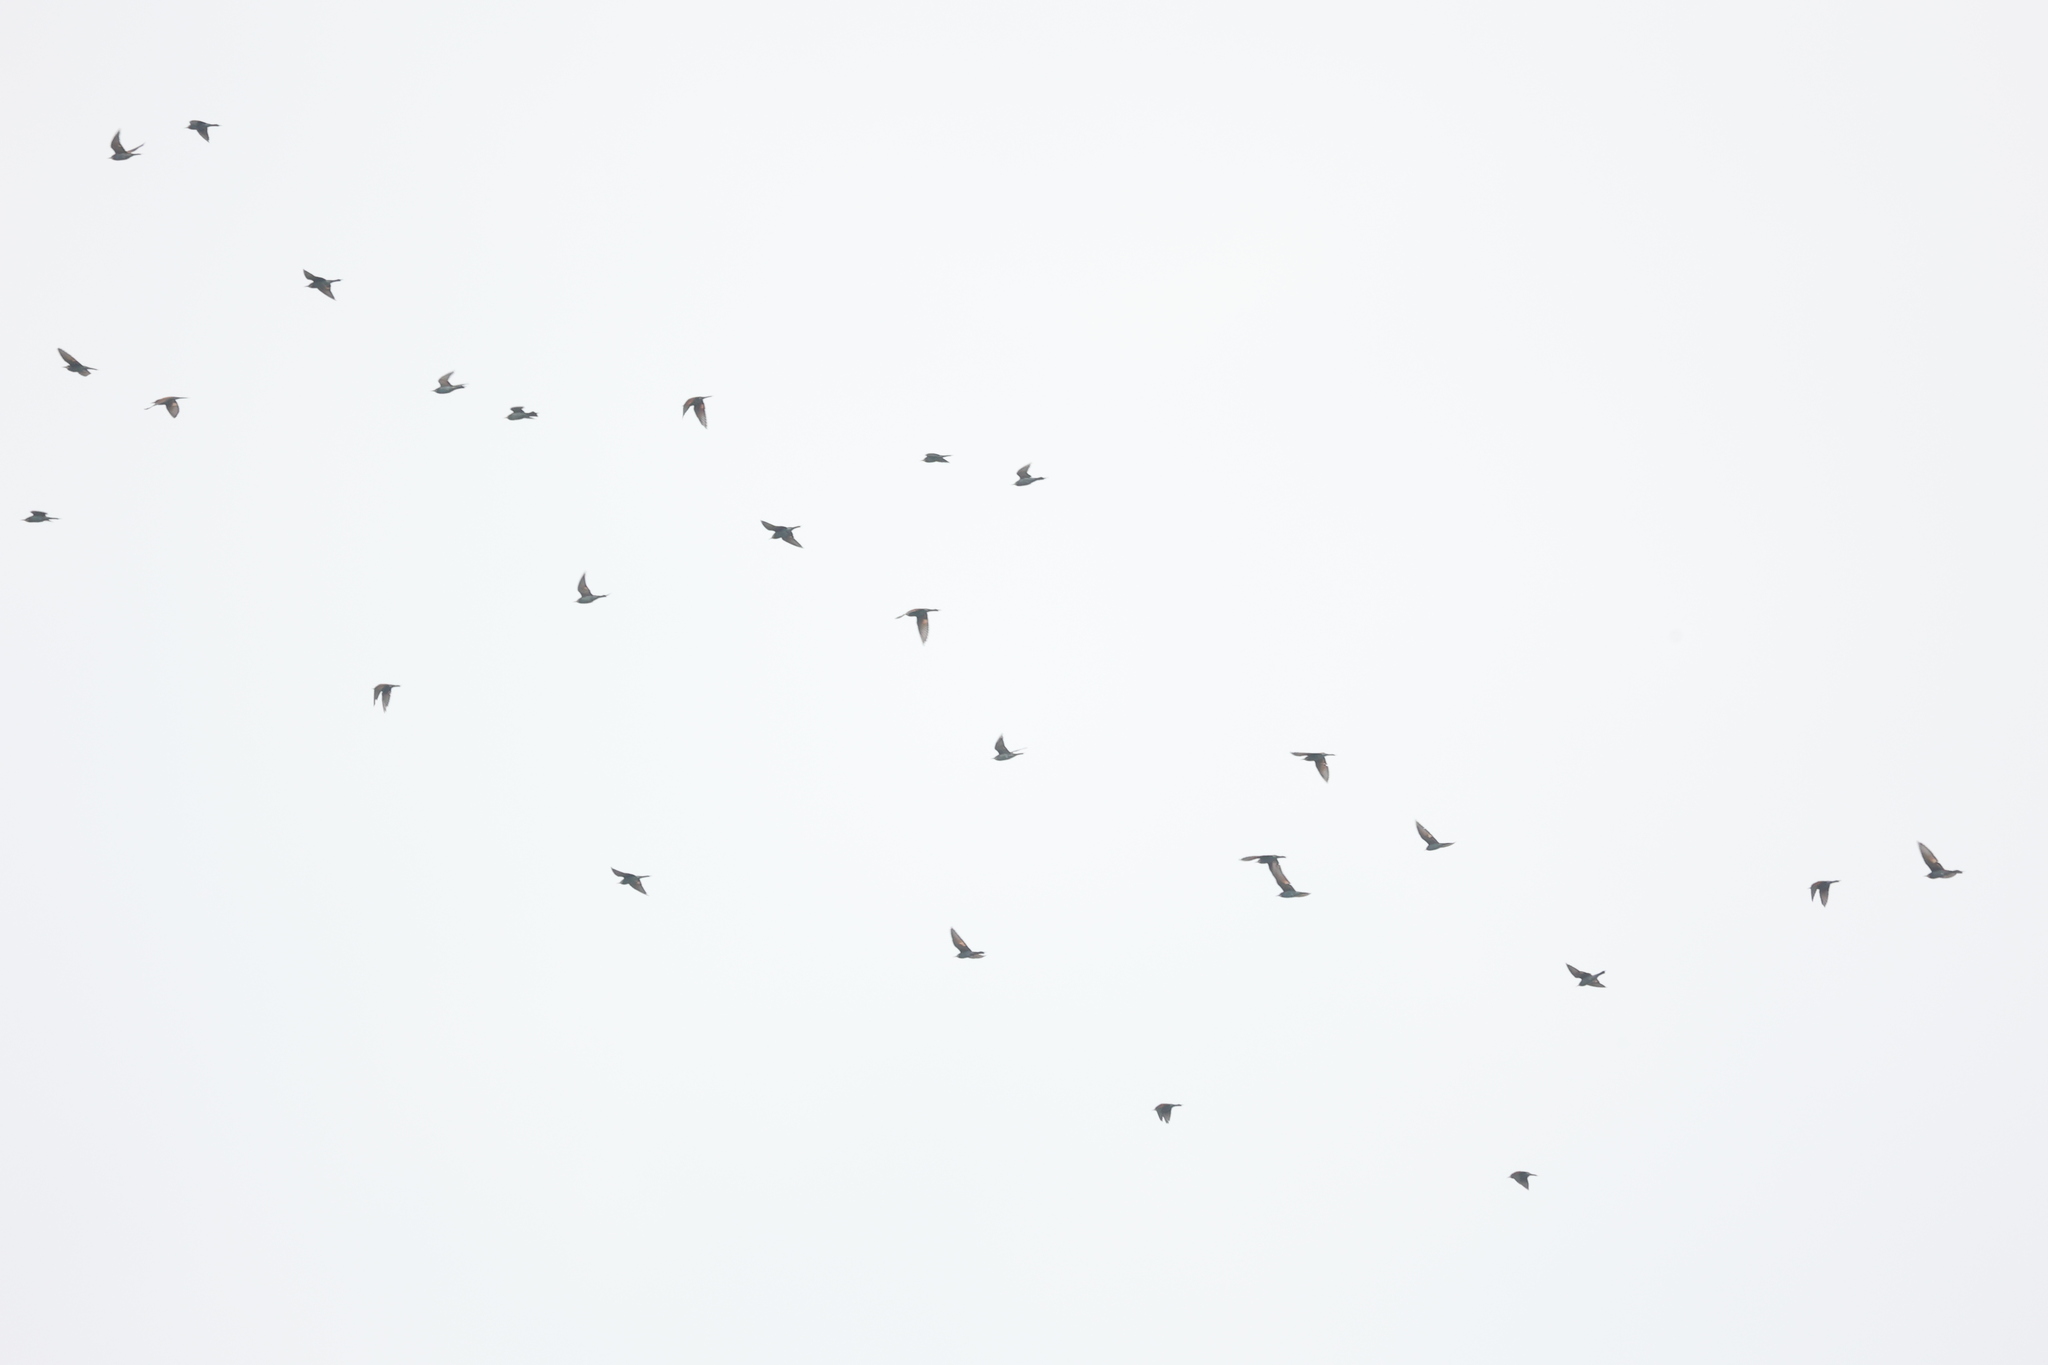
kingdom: Animalia
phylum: Chordata
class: Aves
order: Coraciiformes
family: Meropidae
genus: Merops
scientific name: Merops apiaster
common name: European bee-eater
